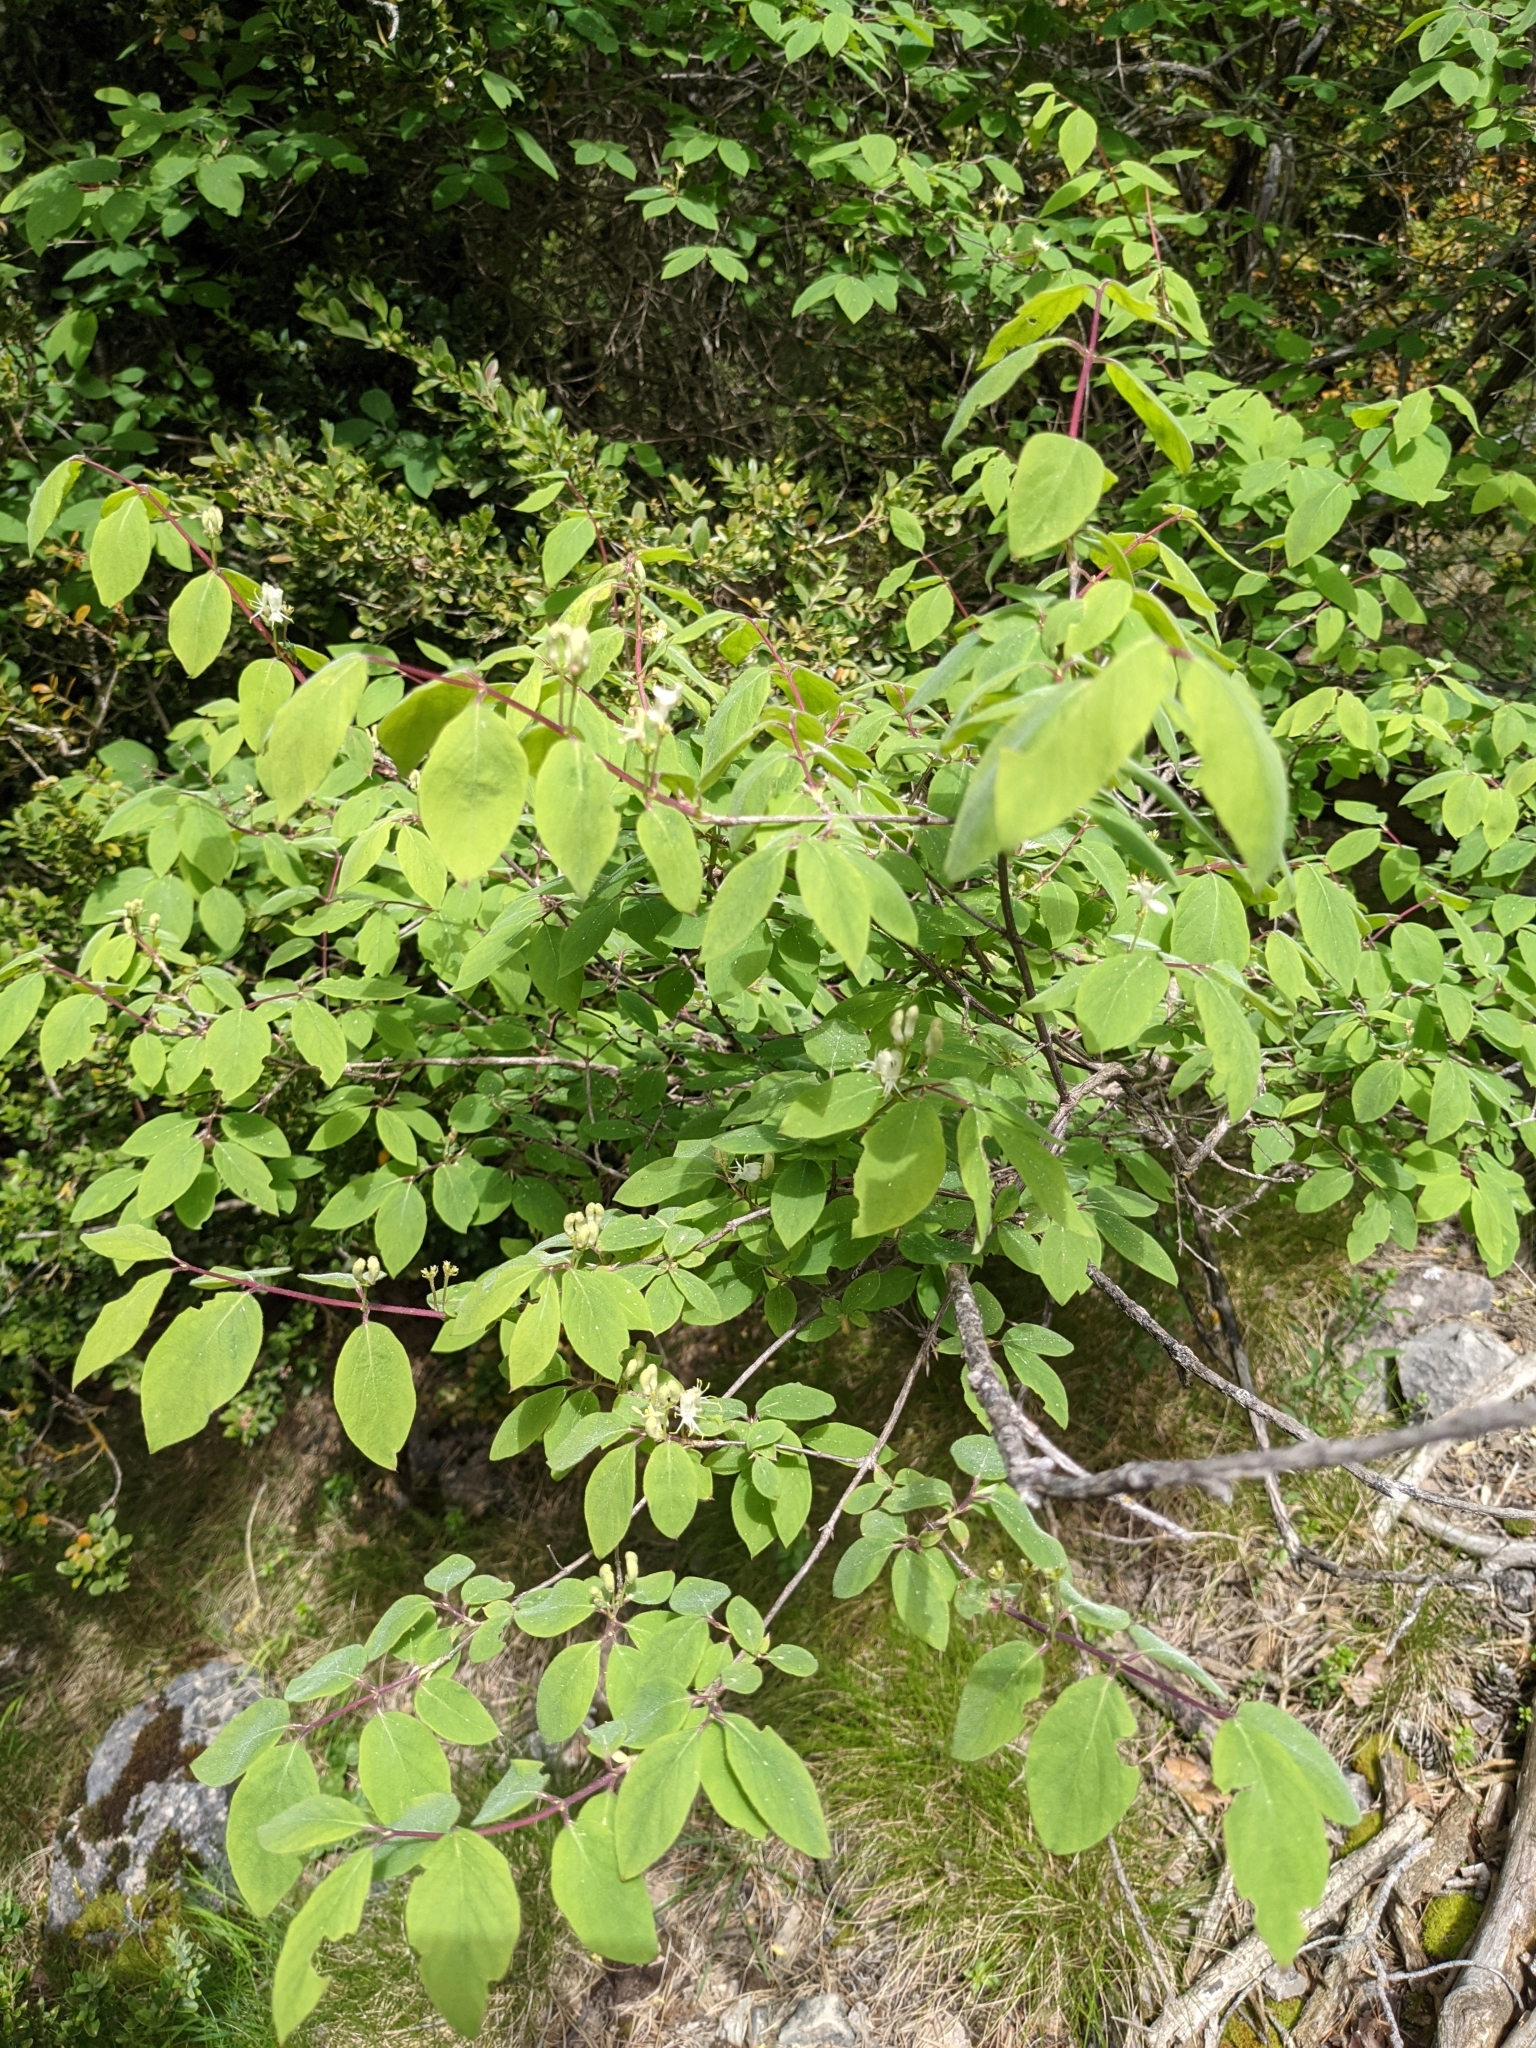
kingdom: Plantae
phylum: Tracheophyta
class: Magnoliopsida
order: Dipsacales
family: Caprifoliaceae
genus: Lonicera
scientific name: Lonicera xylosteum
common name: Fly honeysuckle
